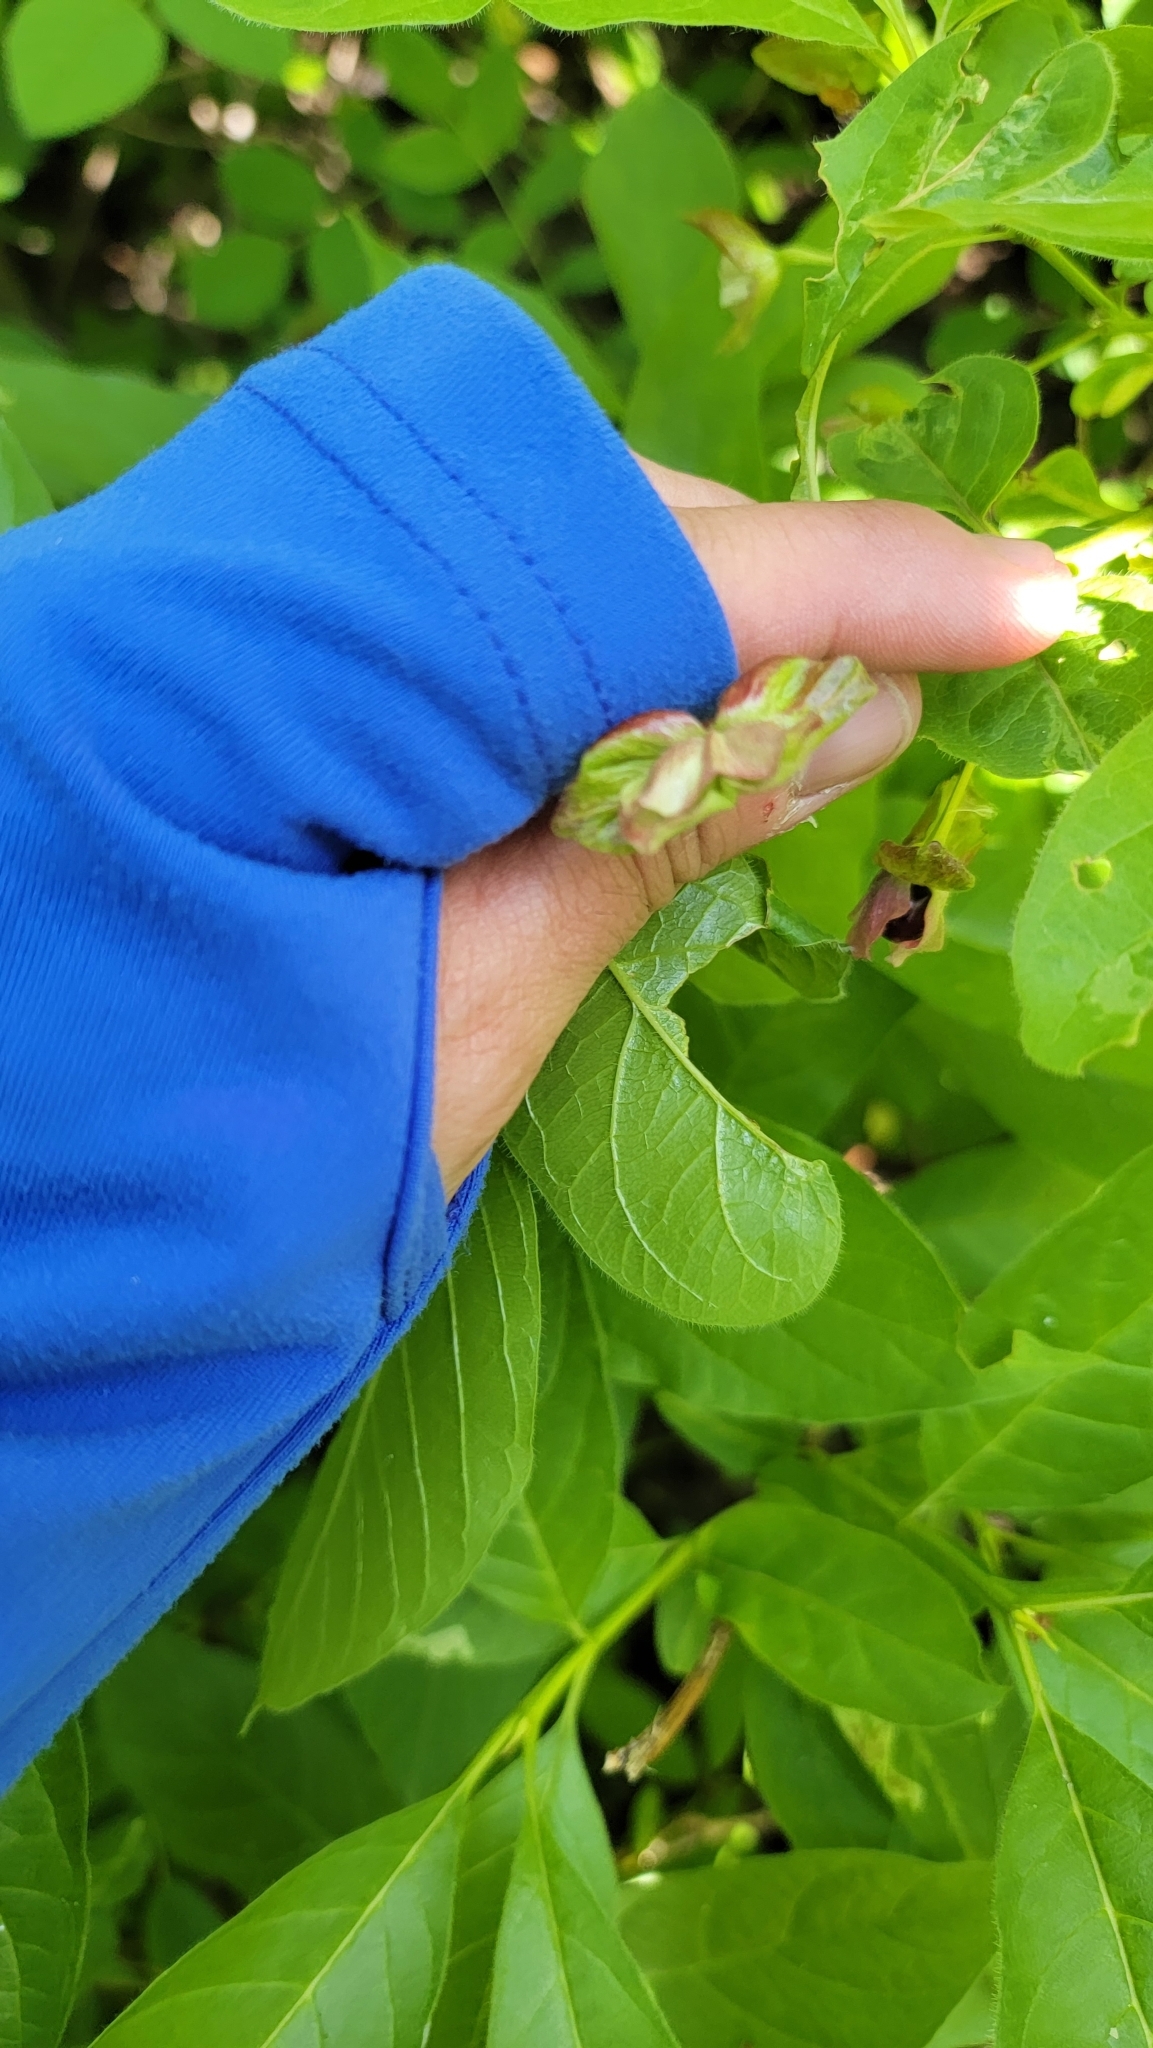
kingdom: Plantae
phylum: Tracheophyta
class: Magnoliopsida
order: Dipsacales
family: Caprifoliaceae
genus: Lonicera
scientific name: Lonicera involucrata
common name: Californian honeysuckle
